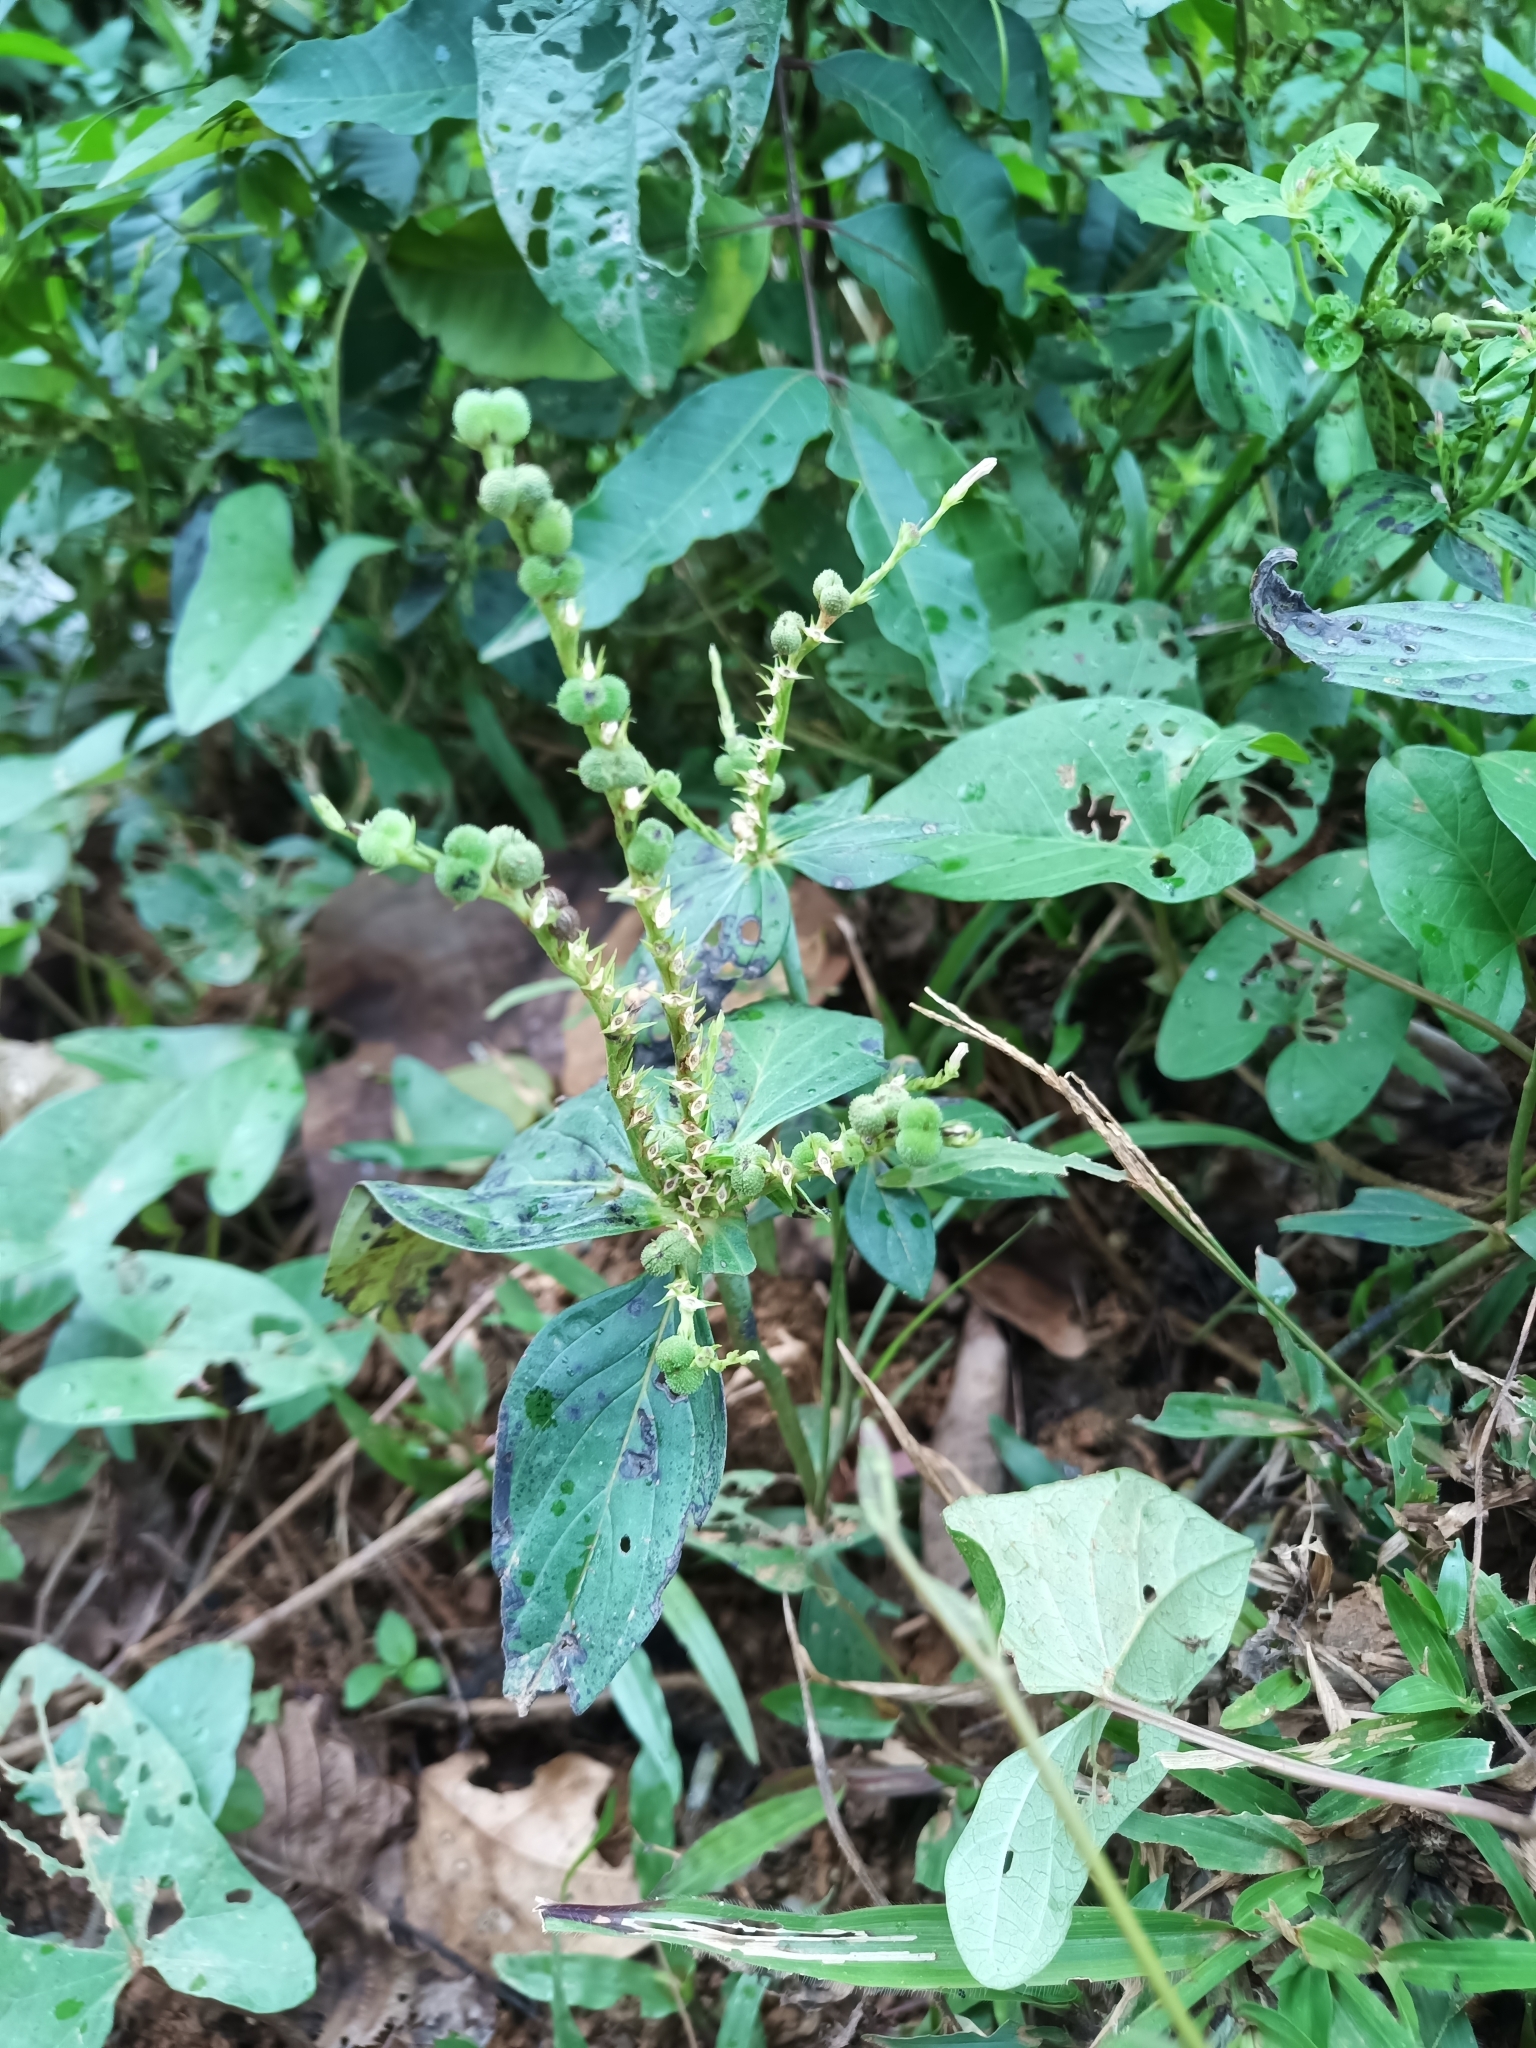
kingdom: Plantae
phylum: Tracheophyta
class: Magnoliopsida
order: Gentianales
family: Loganiaceae
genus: Spigelia
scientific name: Spigelia hamellioides
